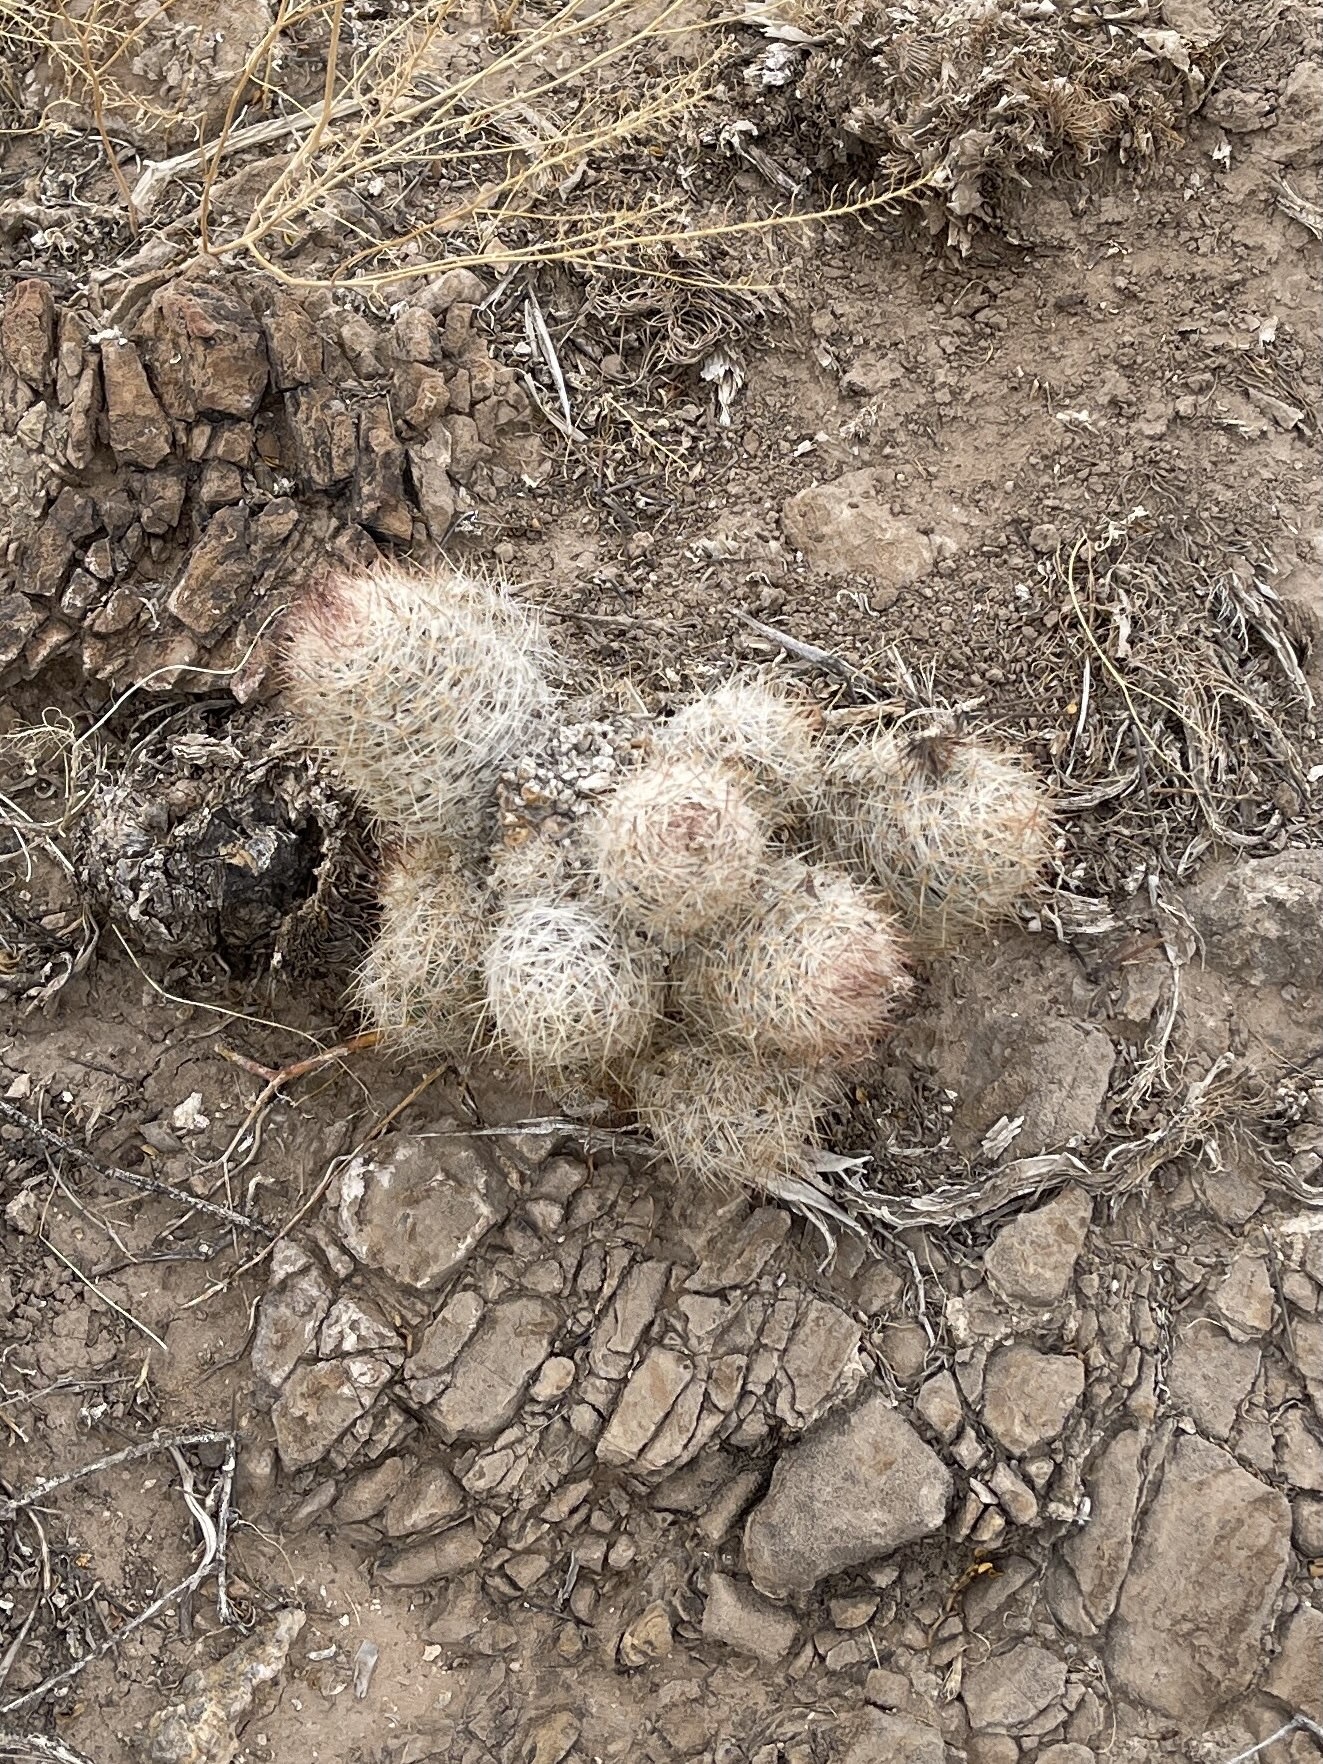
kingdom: Plantae
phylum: Tracheophyta
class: Magnoliopsida
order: Caryophyllales
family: Cactaceae
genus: Pelecyphora
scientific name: Pelecyphora tuberculosa
